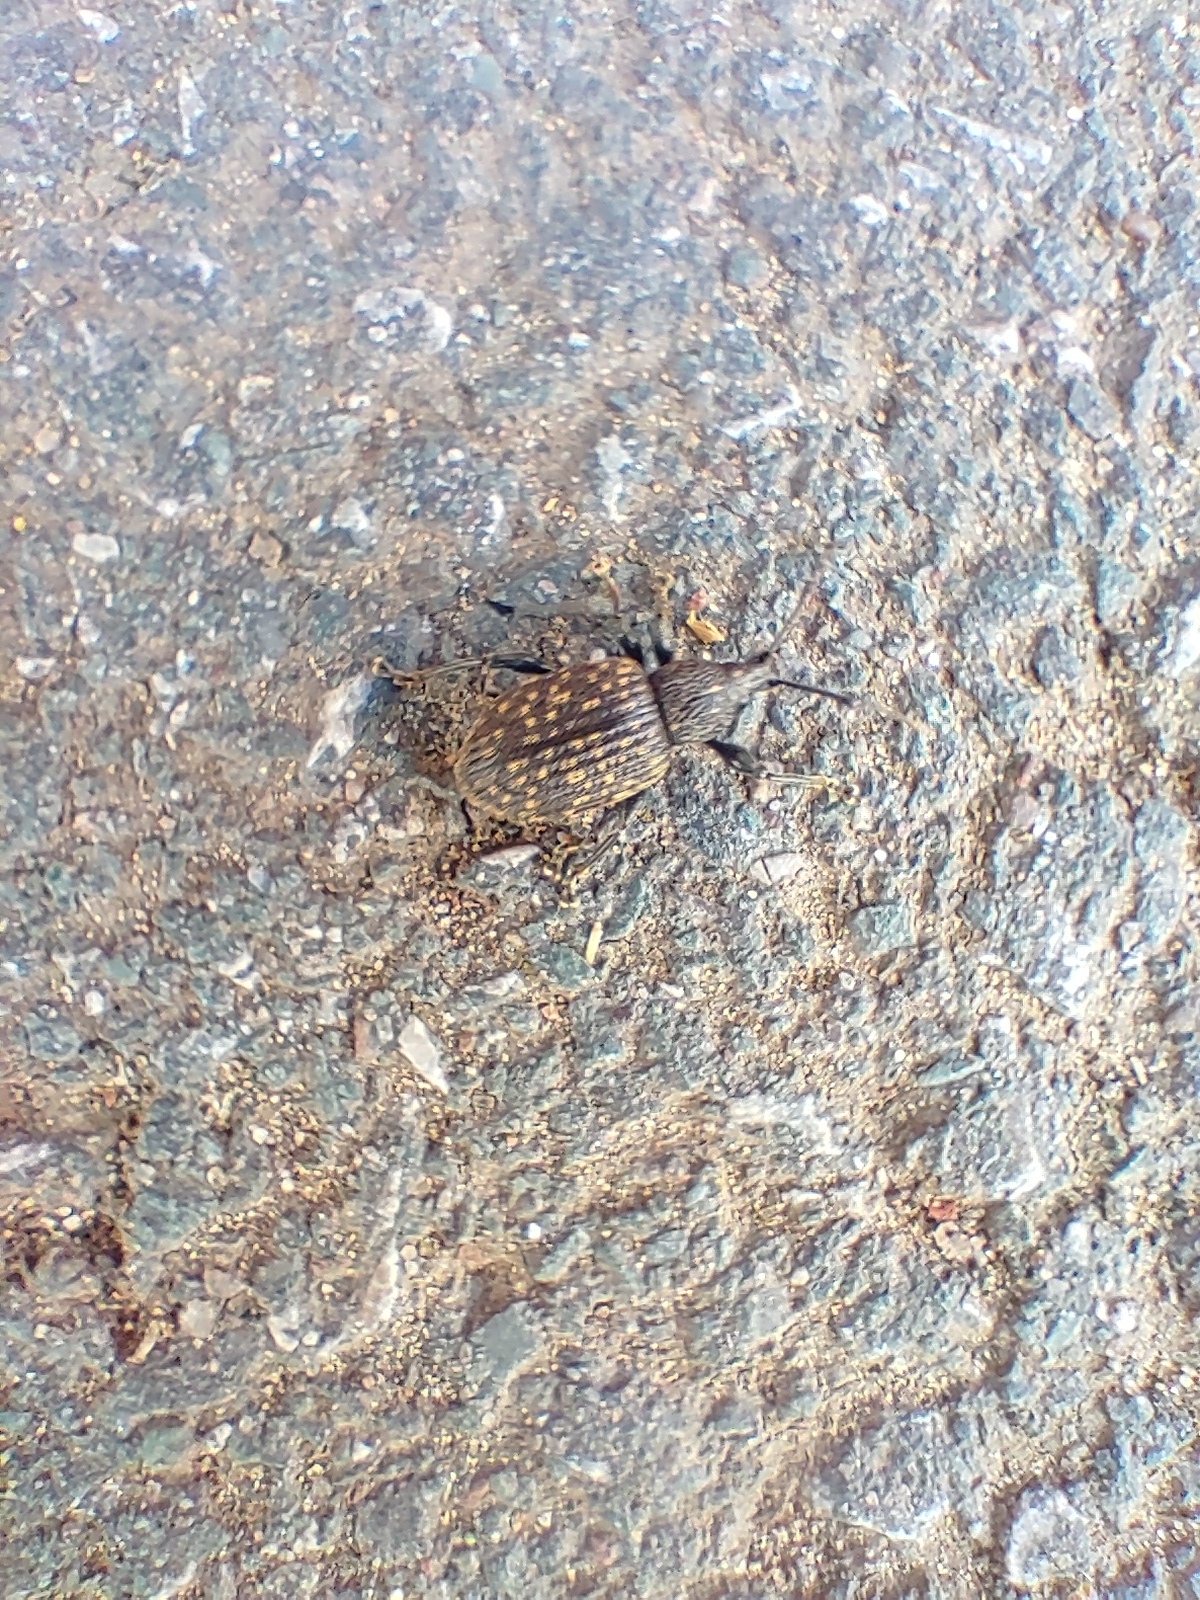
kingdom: Animalia
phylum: Arthropoda
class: Insecta
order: Coleoptera
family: Curculionidae
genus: Otiorhynchus
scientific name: Otiorhynchus sulcatus
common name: Black vine weevil
